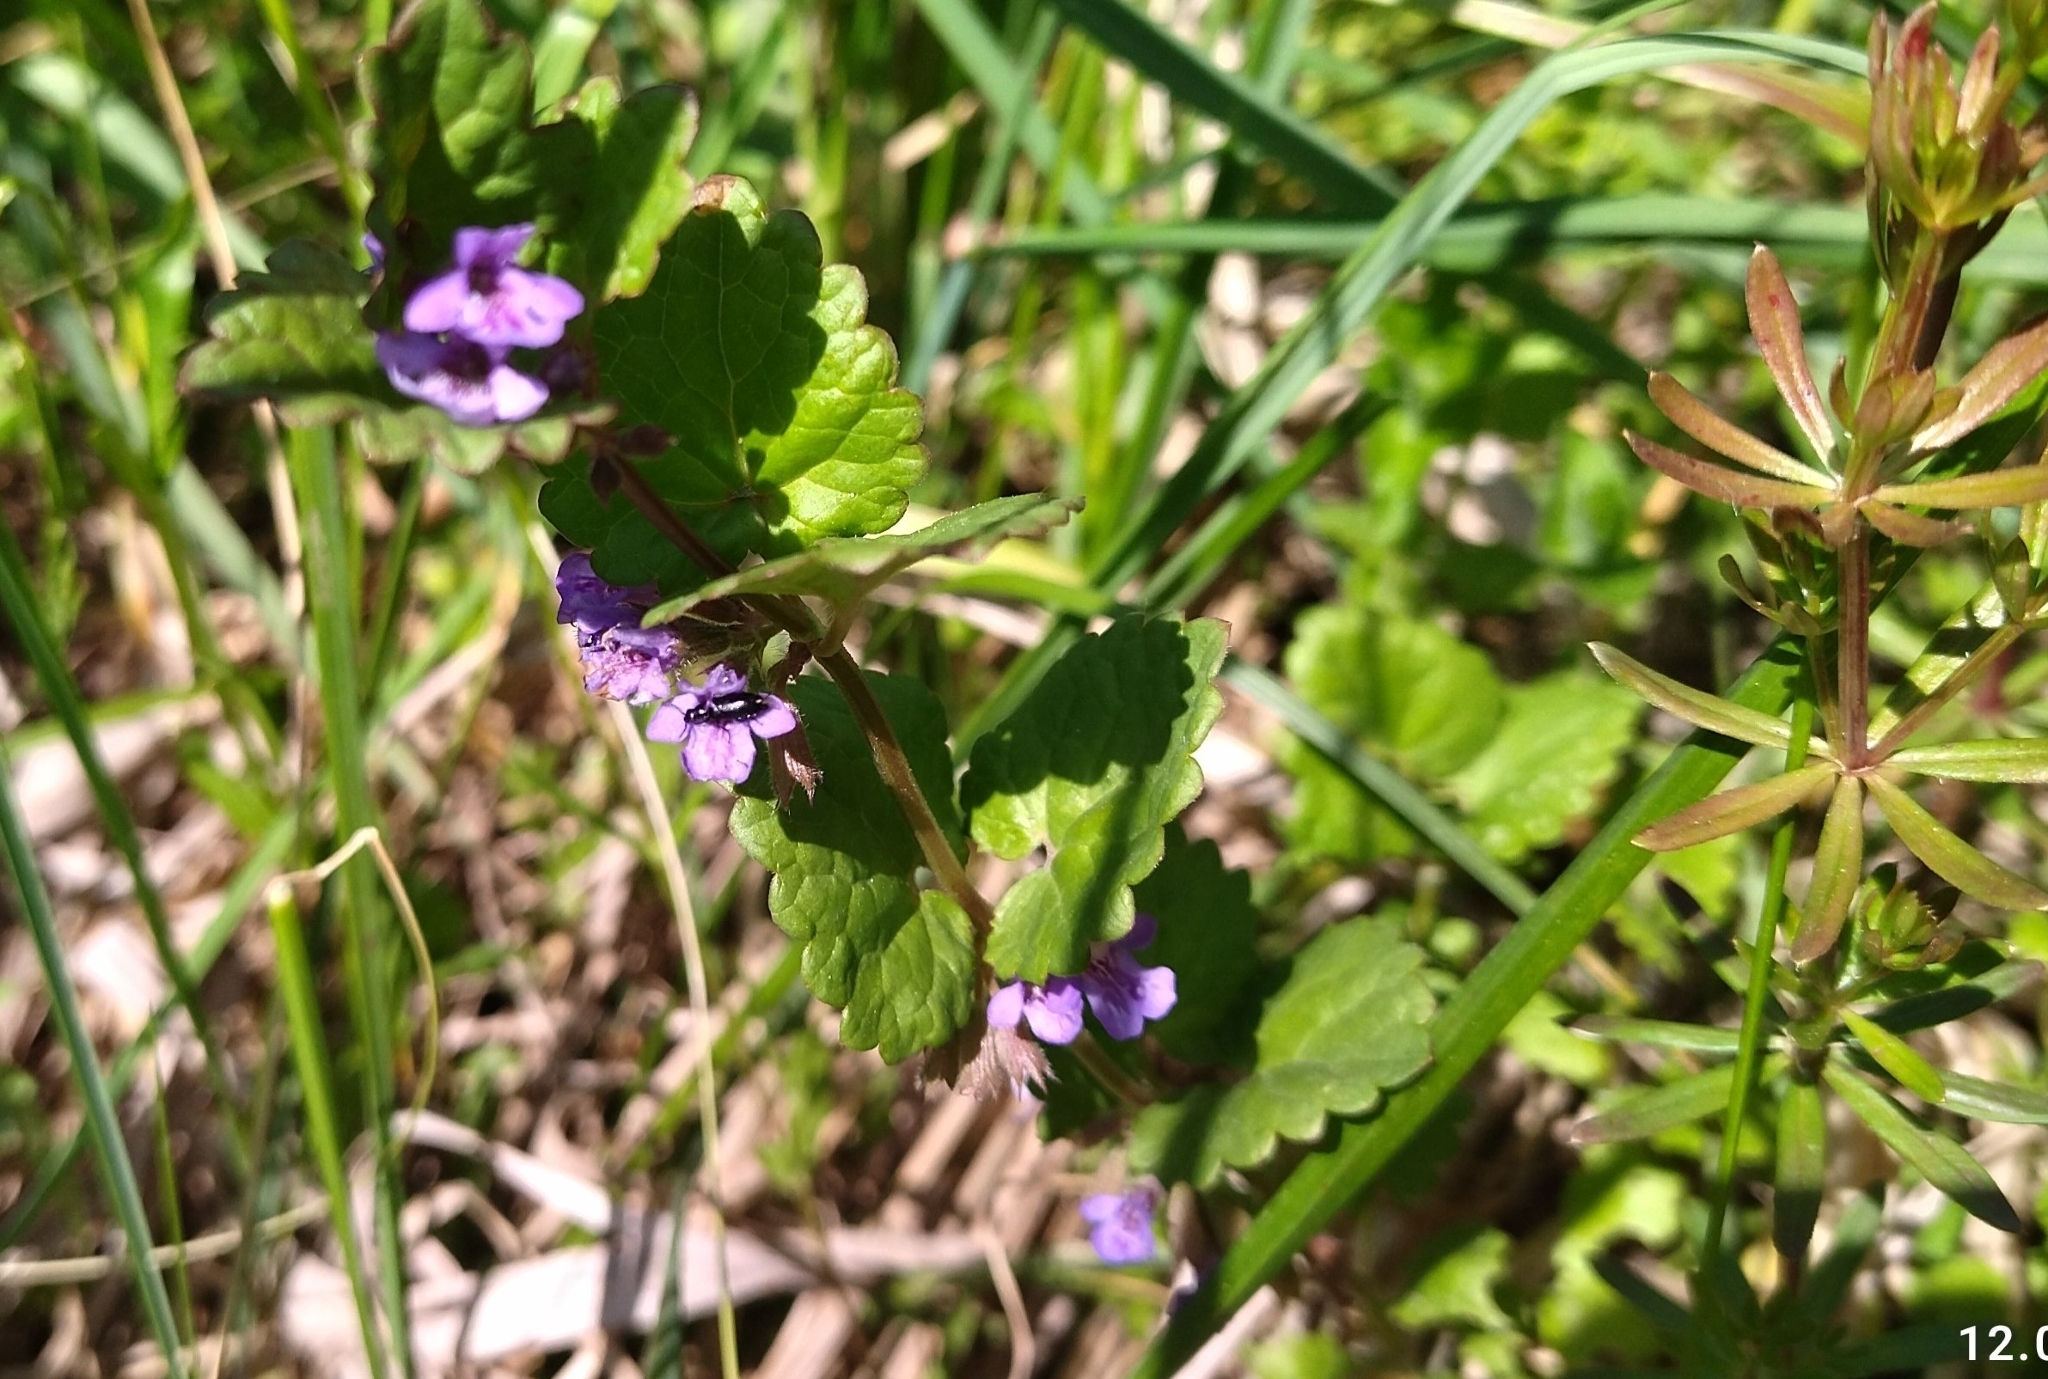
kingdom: Plantae
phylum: Tracheophyta
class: Magnoliopsida
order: Lamiales
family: Lamiaceae
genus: Glechoma
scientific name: Glechoma hederacea
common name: Ground ivy
